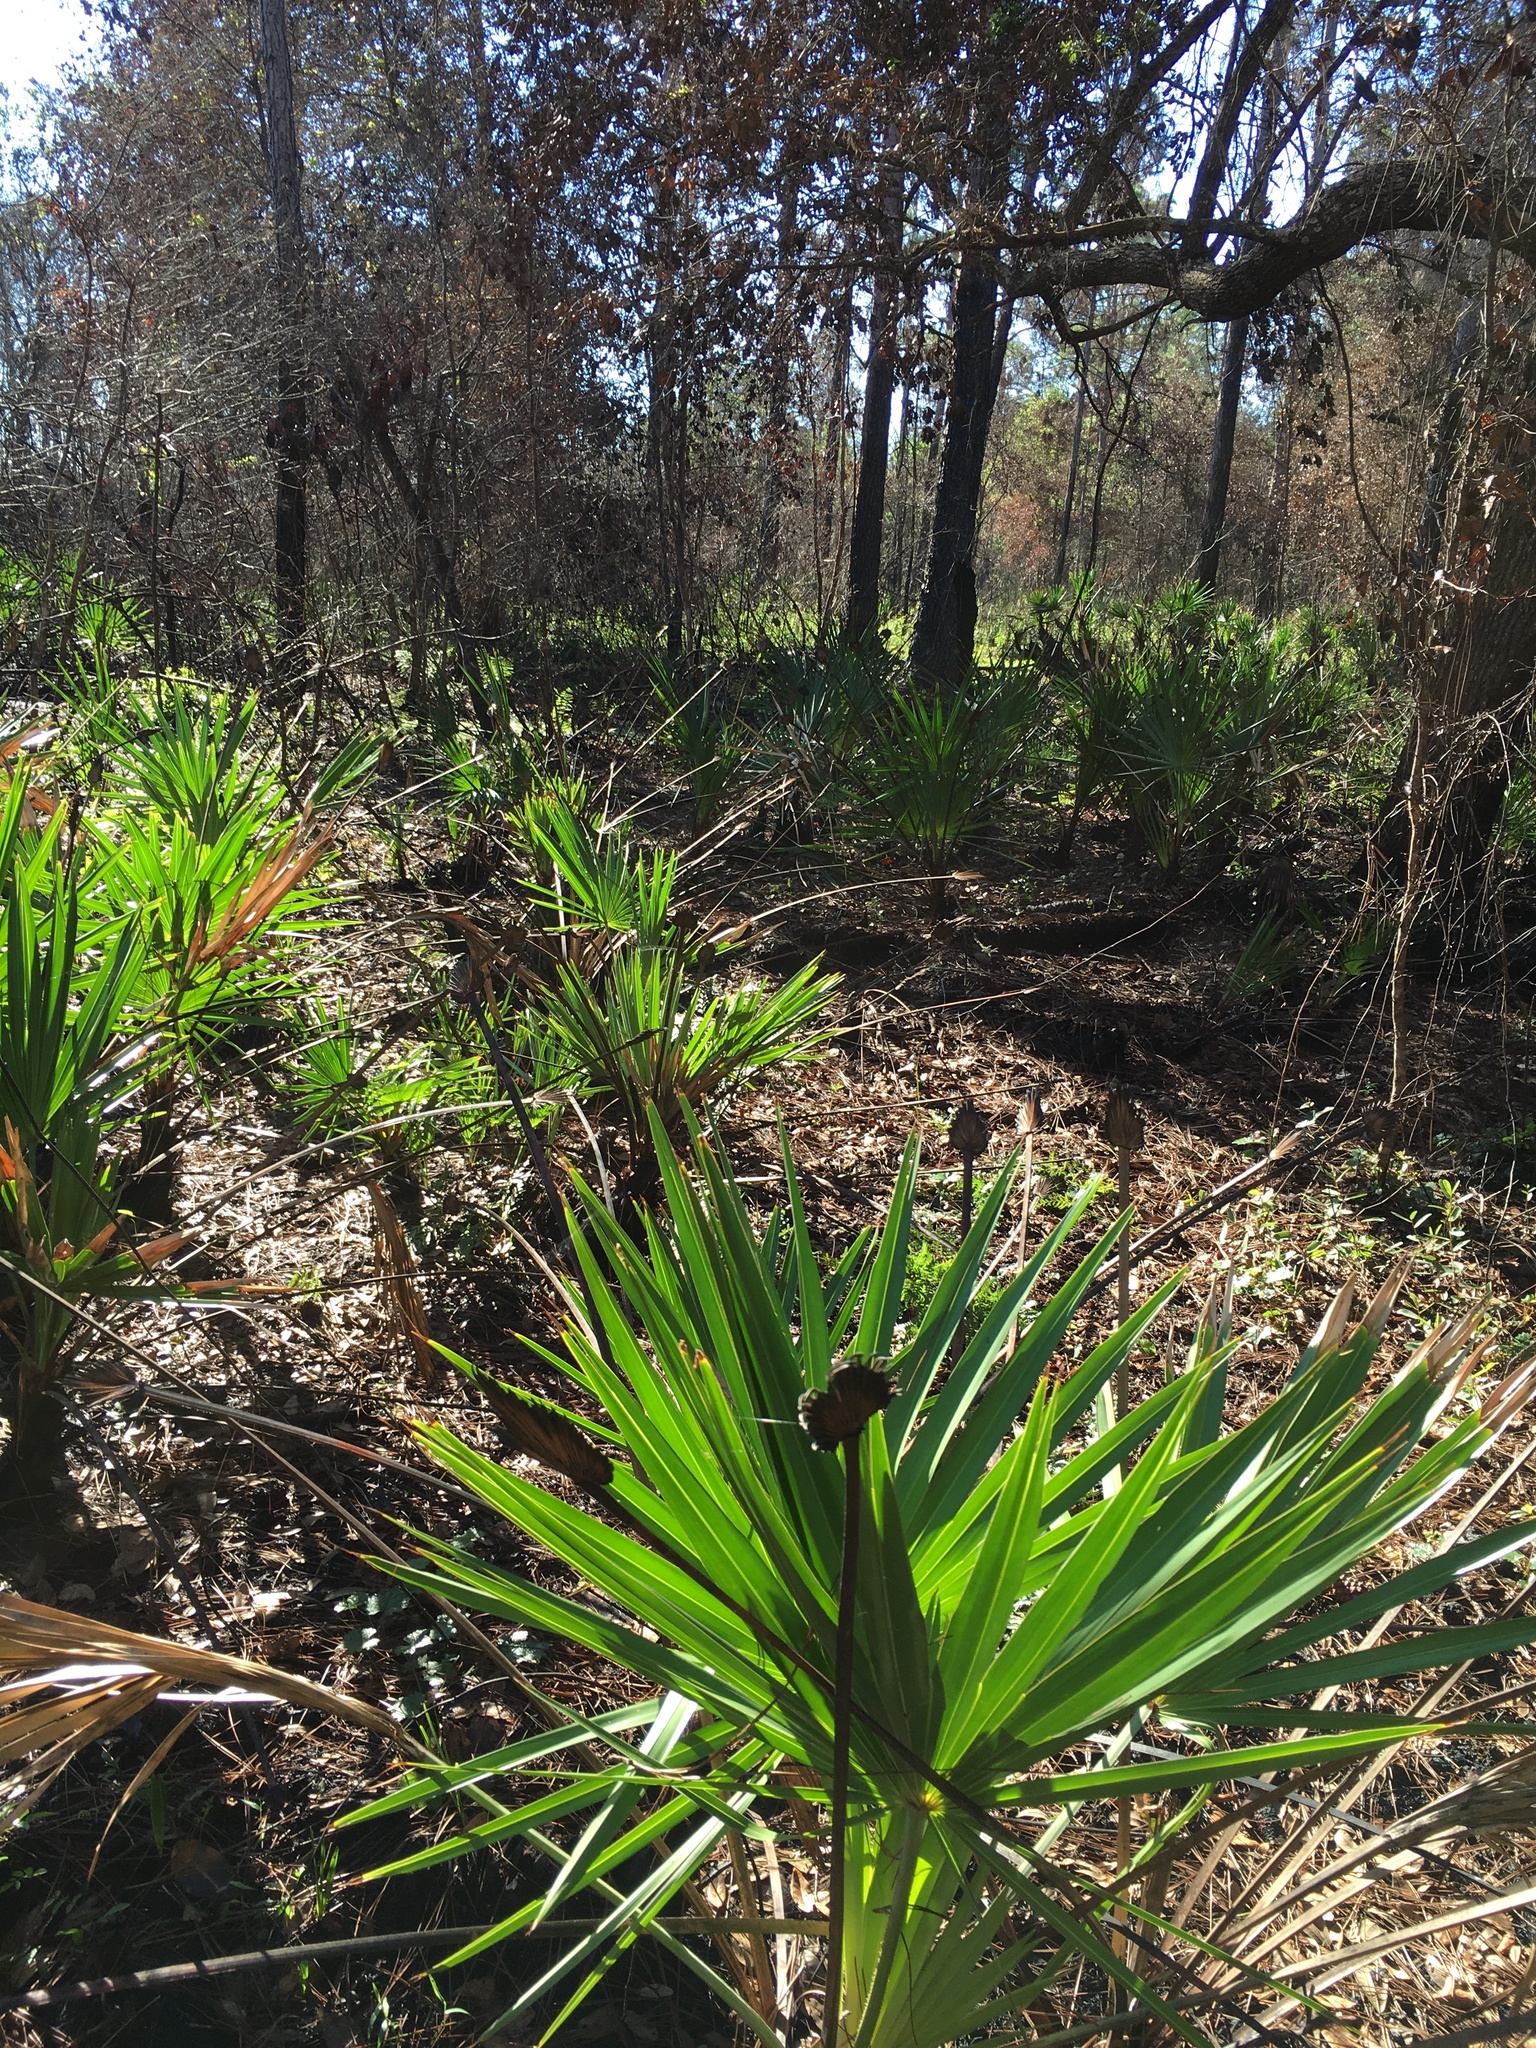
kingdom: Plantae
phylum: Tracheophyta
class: Liliopsida
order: Arecales
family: Arecaceae
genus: Serenoa
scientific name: Serenoa repens
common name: Saw-palmetto
